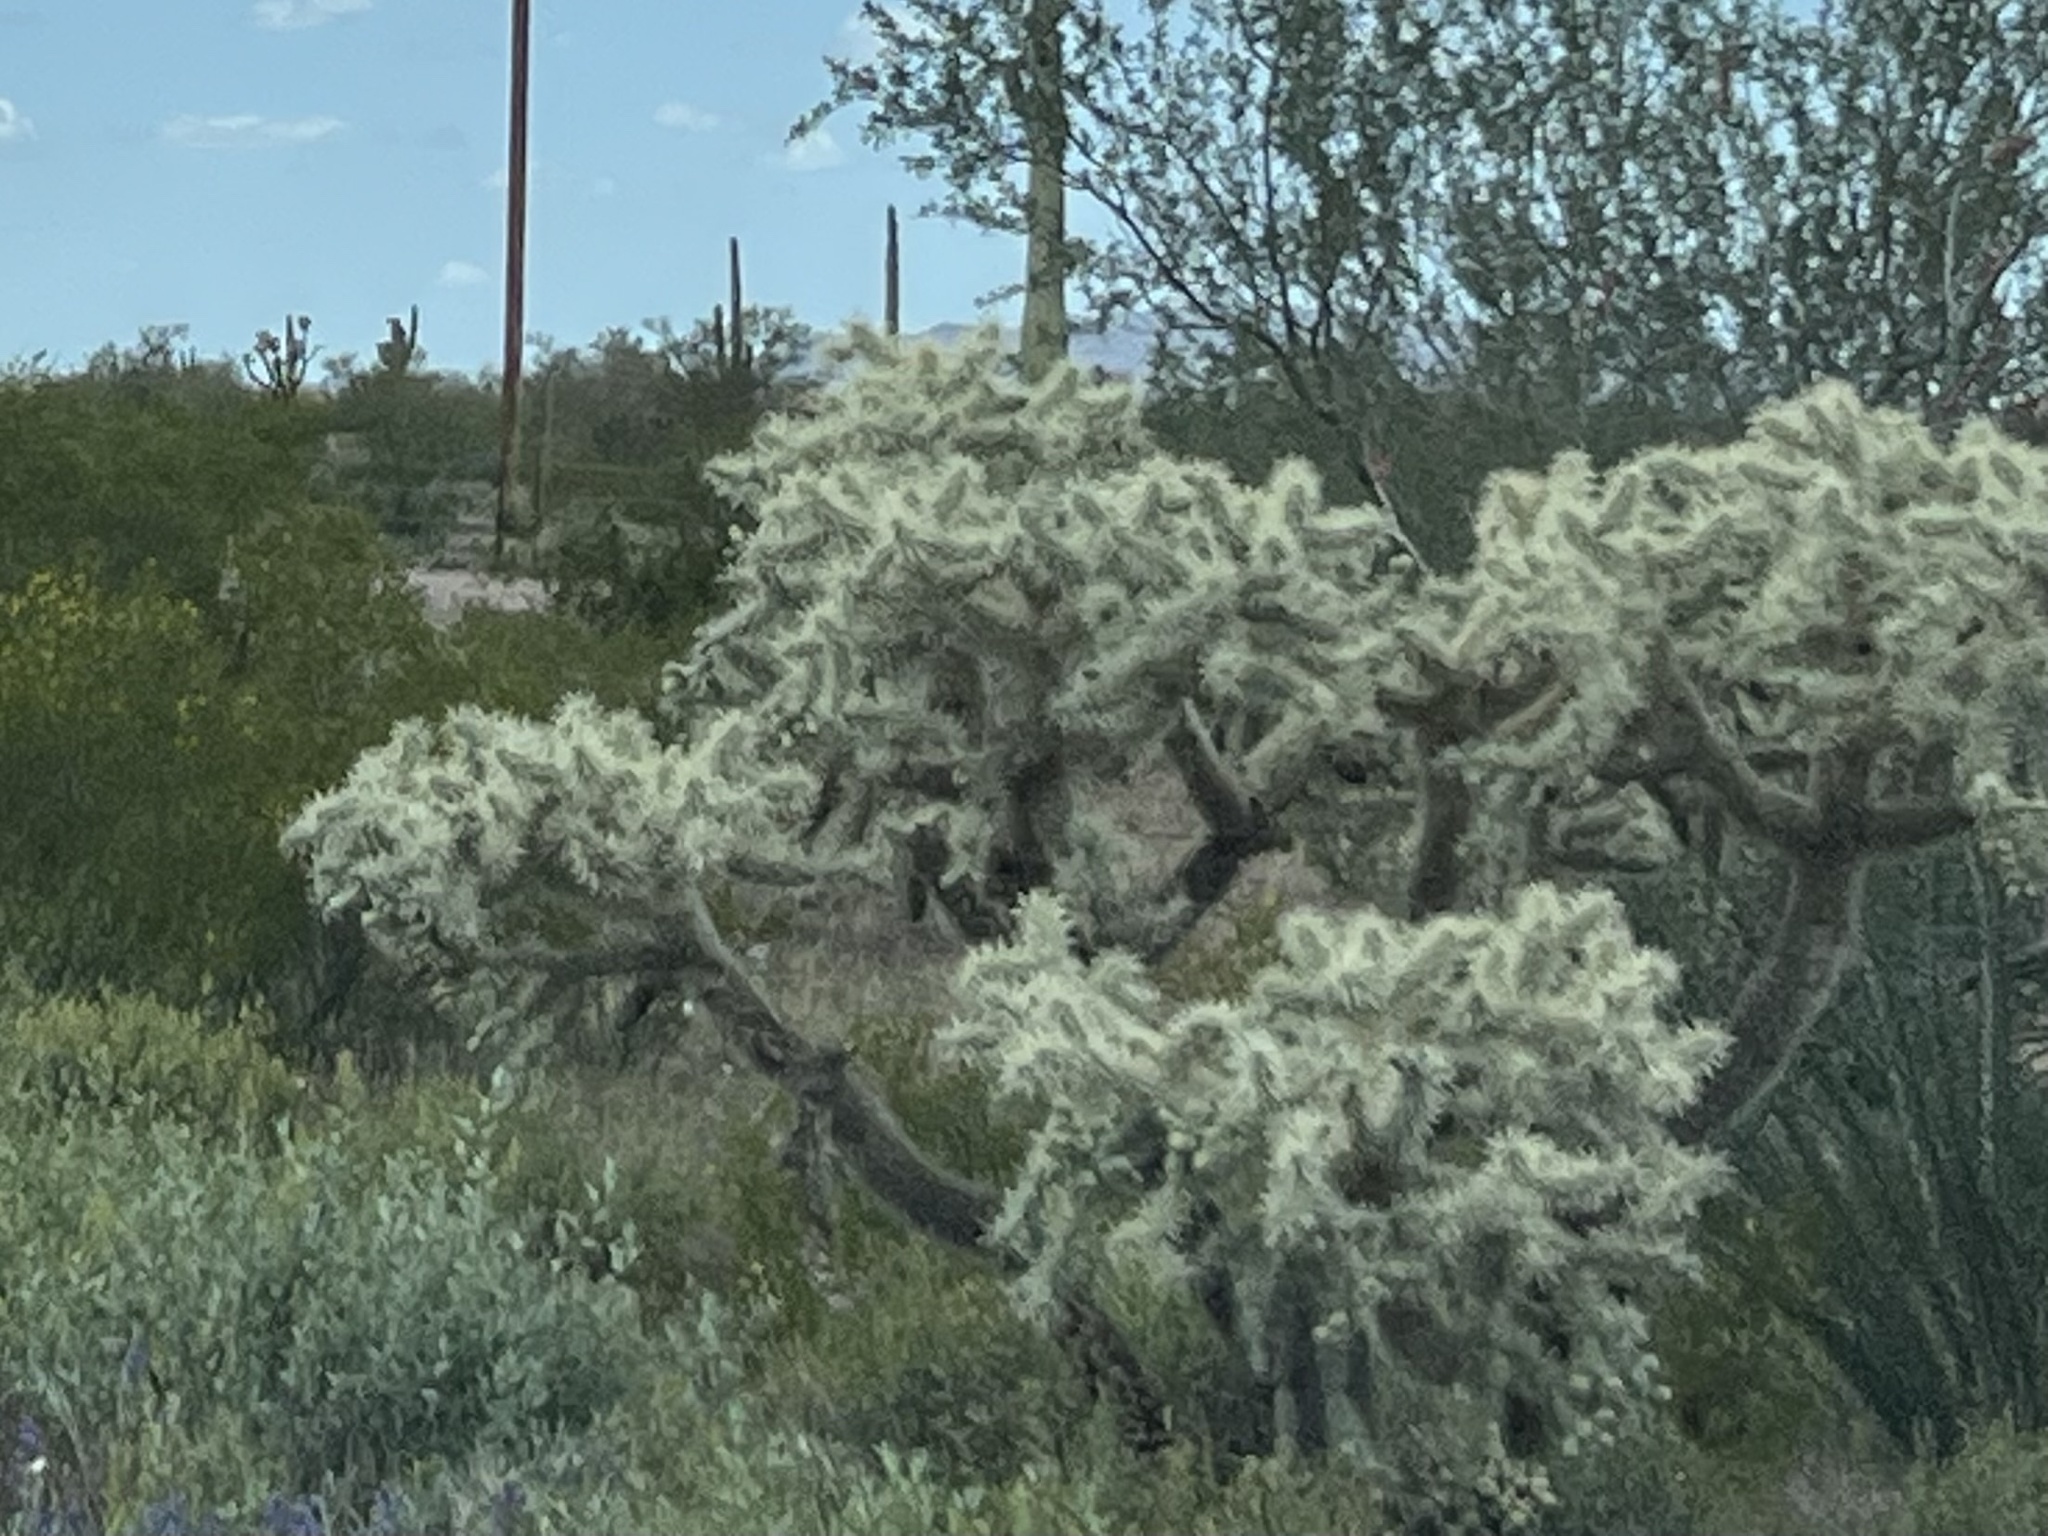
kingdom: Plantae
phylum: Tracheophyta
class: Magnoliopsida
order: Caryophyllales
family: Cactaceae
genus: Cylindropuntia
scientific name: Cylindropuntia fulgida
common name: Jumping cholla
